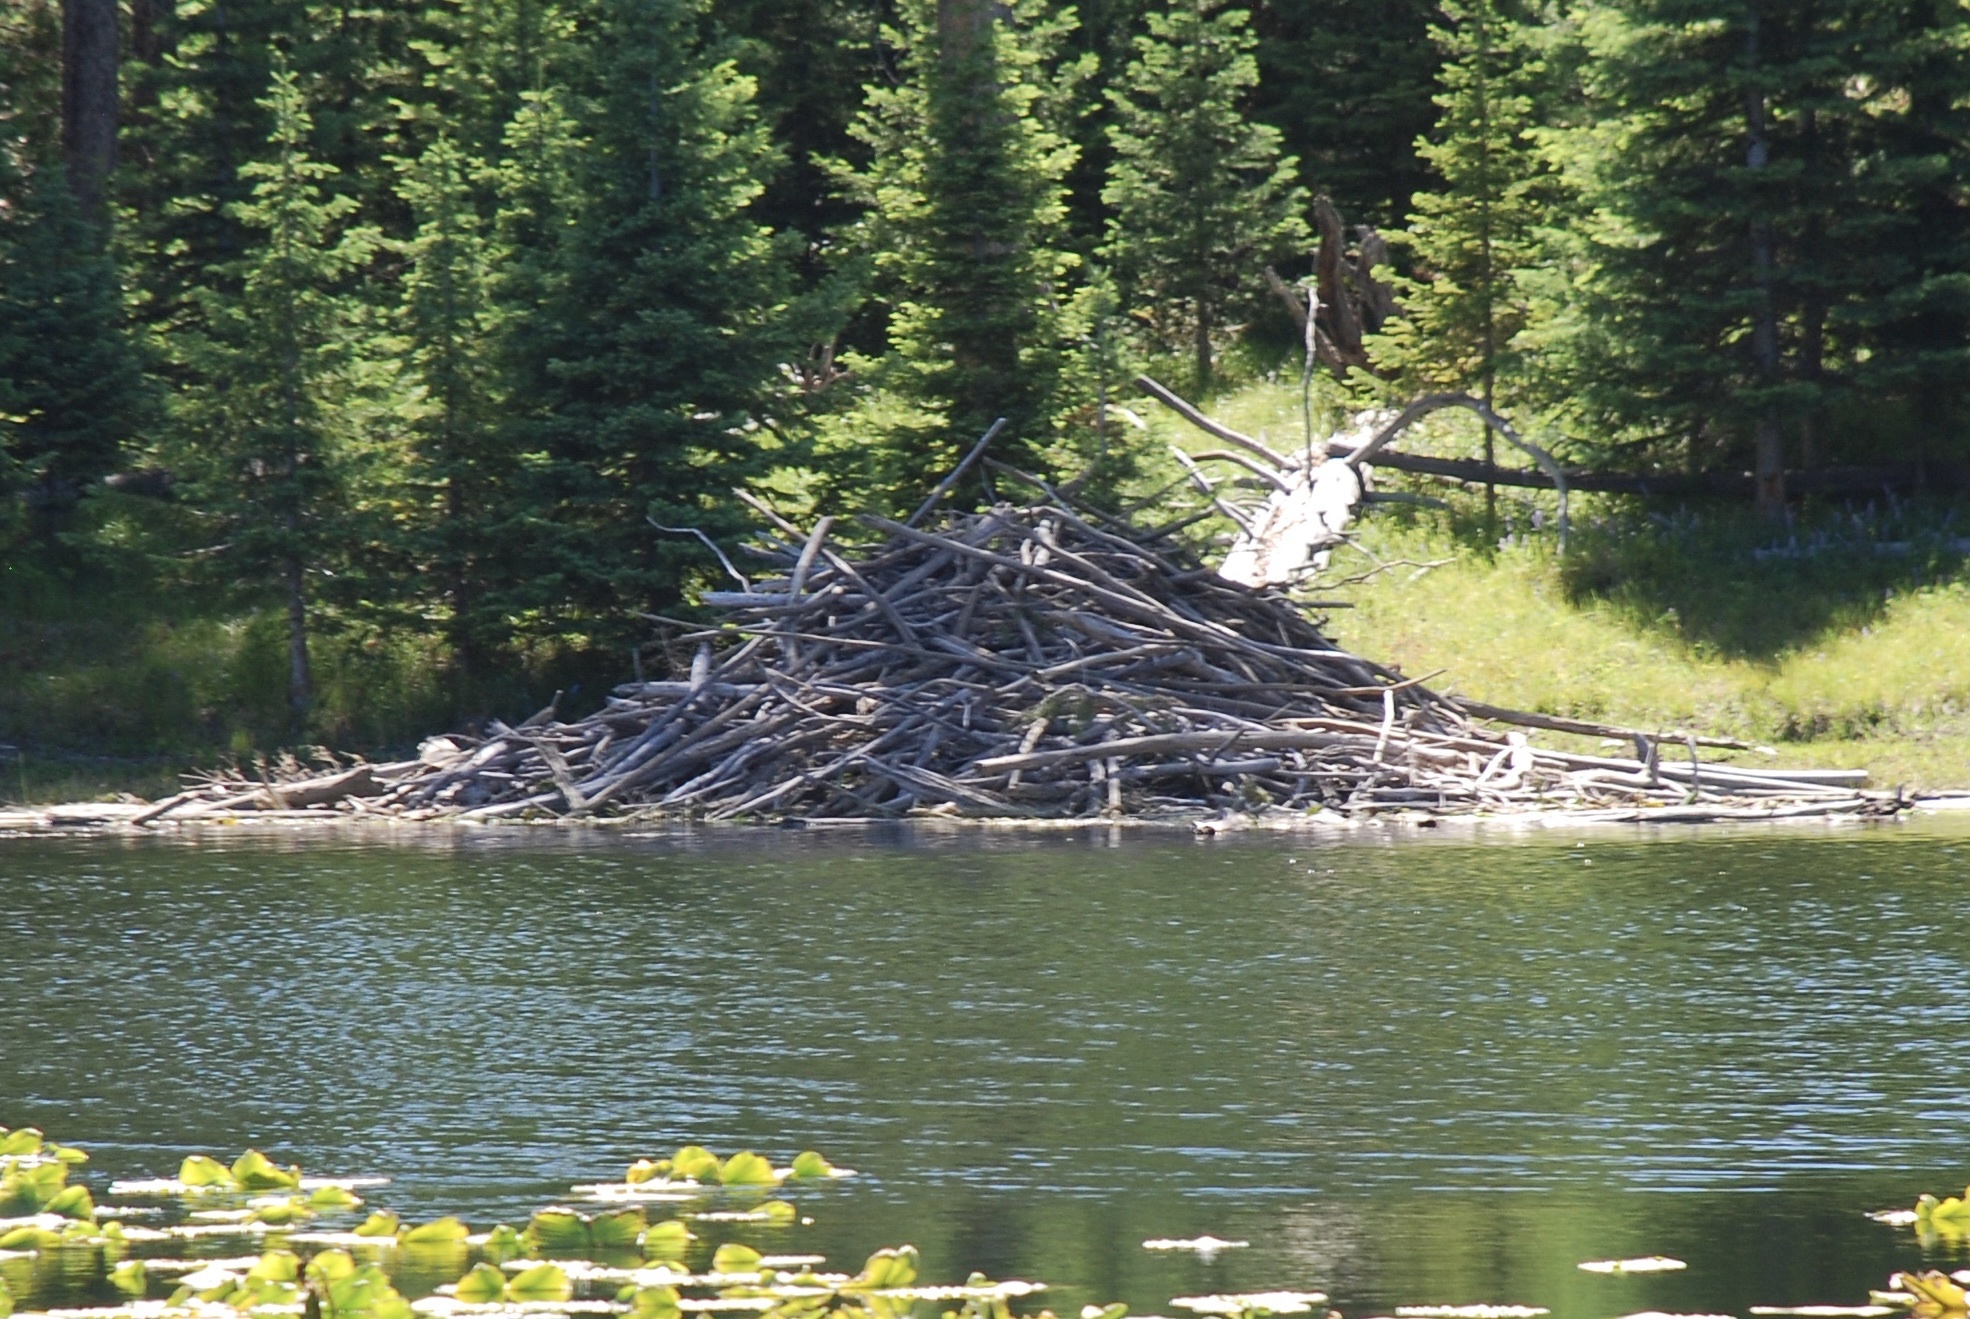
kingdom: Animalia
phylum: Chordata
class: Mammalia
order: Rodentia
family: Castoridae
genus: Castor
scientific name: Castor canadensis
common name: American beaver
